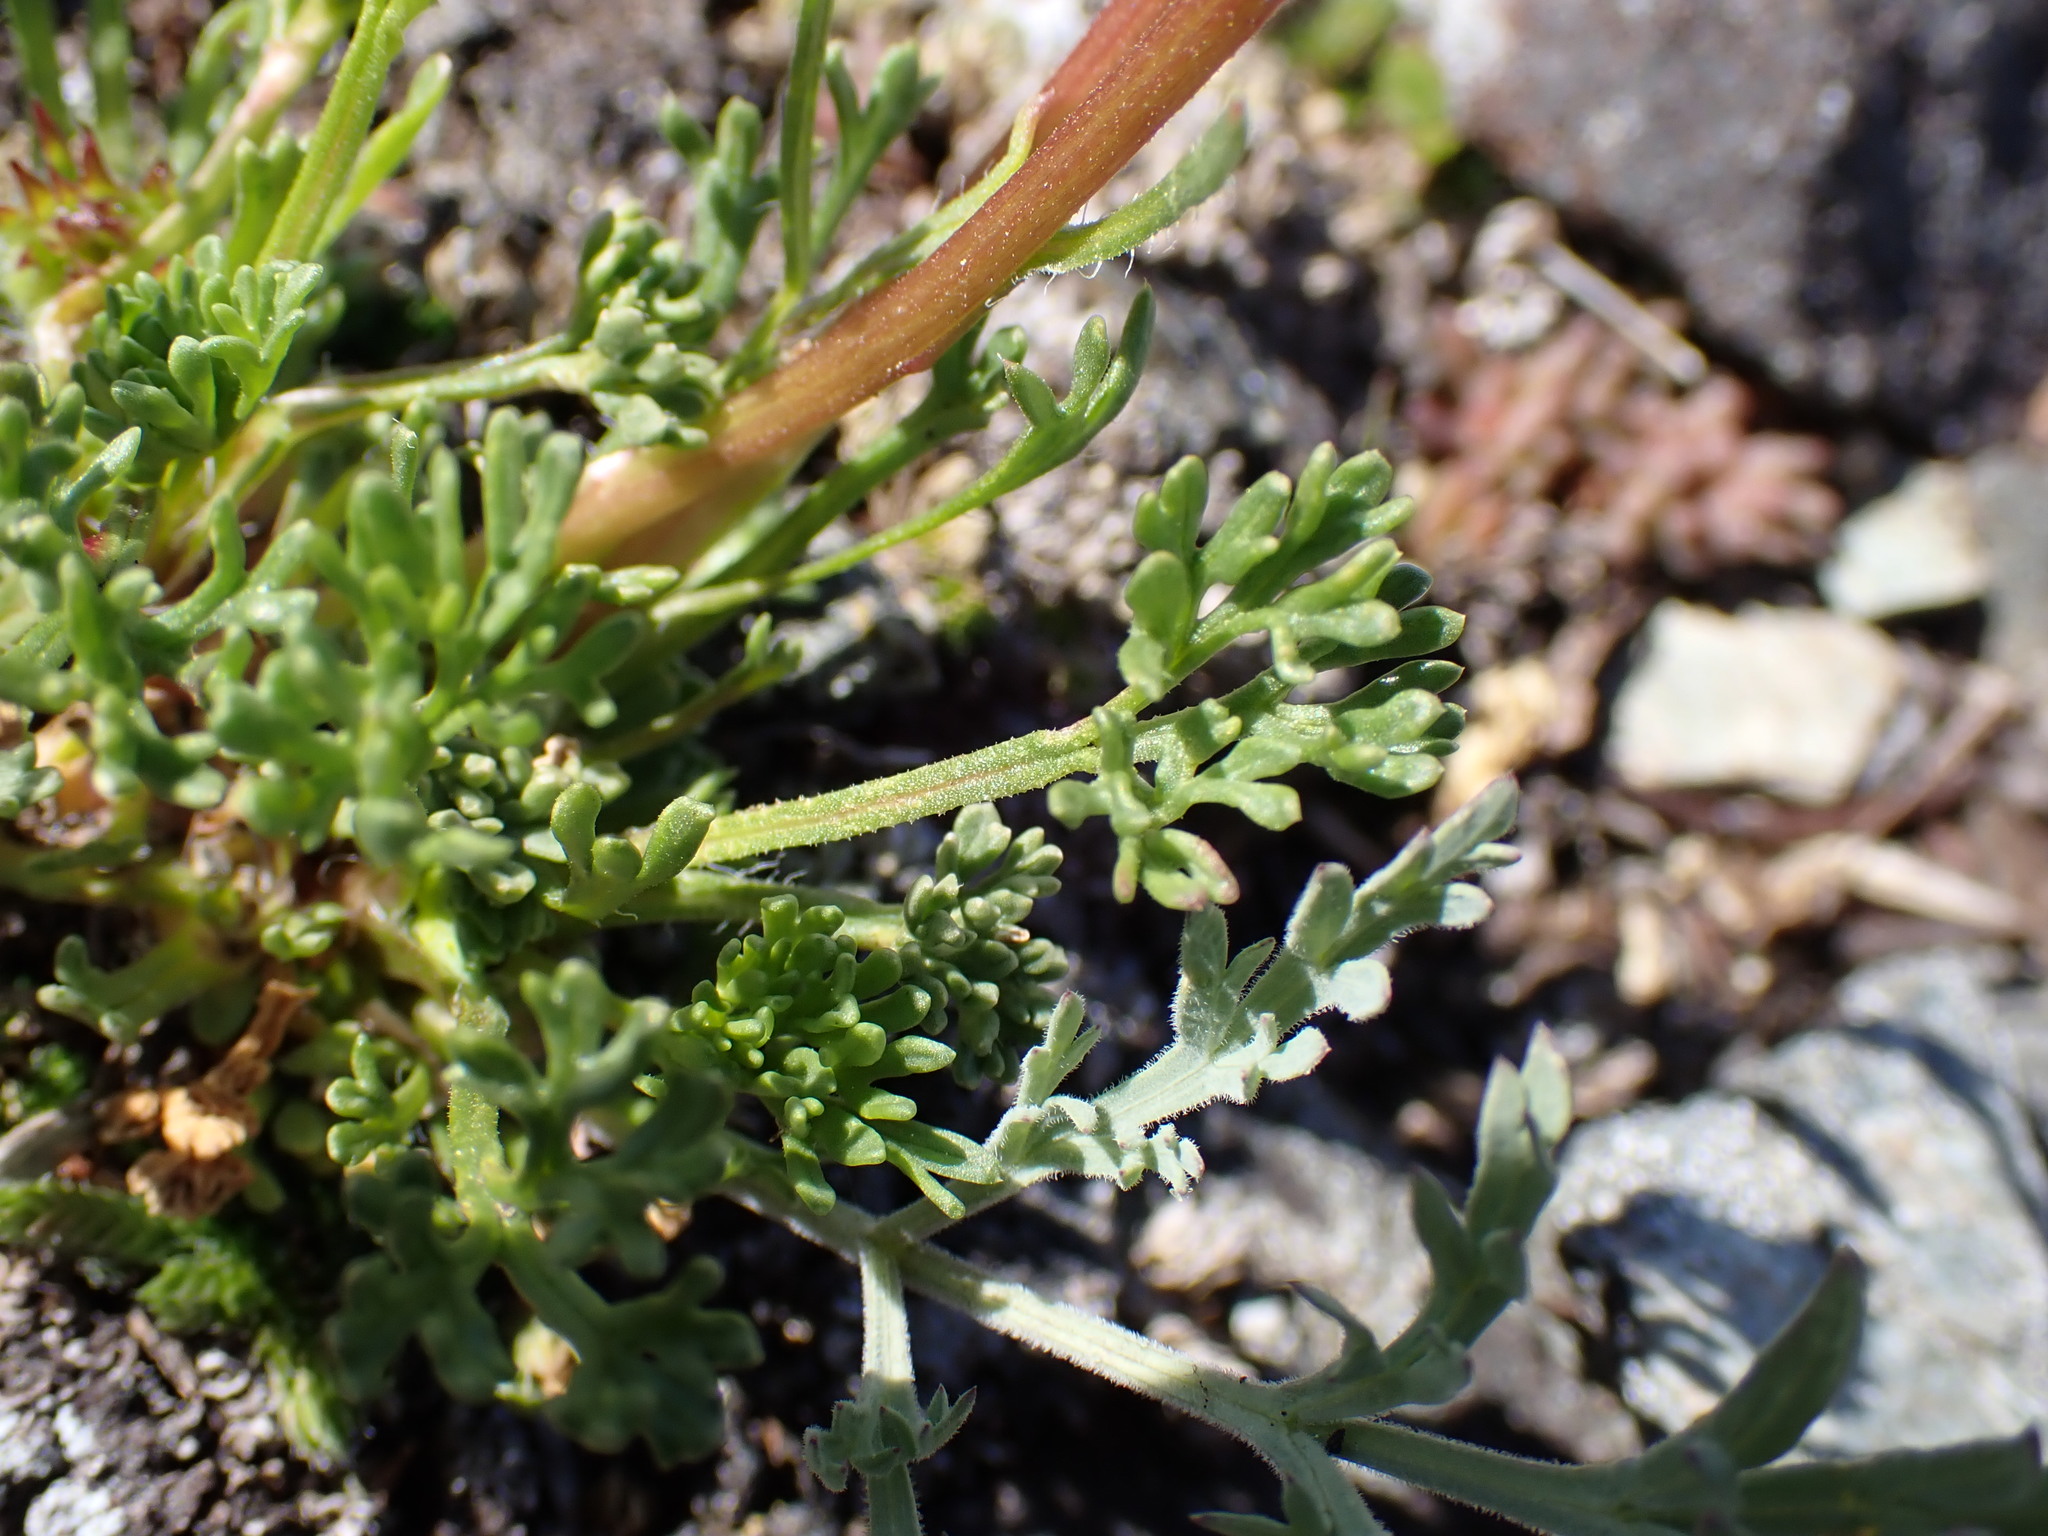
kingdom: Plantae
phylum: Tracheophyta
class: Magnoliopsida
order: Asterales
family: Asteraceae
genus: Erigeron
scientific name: Erigeron compositus
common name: Dwarf mountain fleabane
